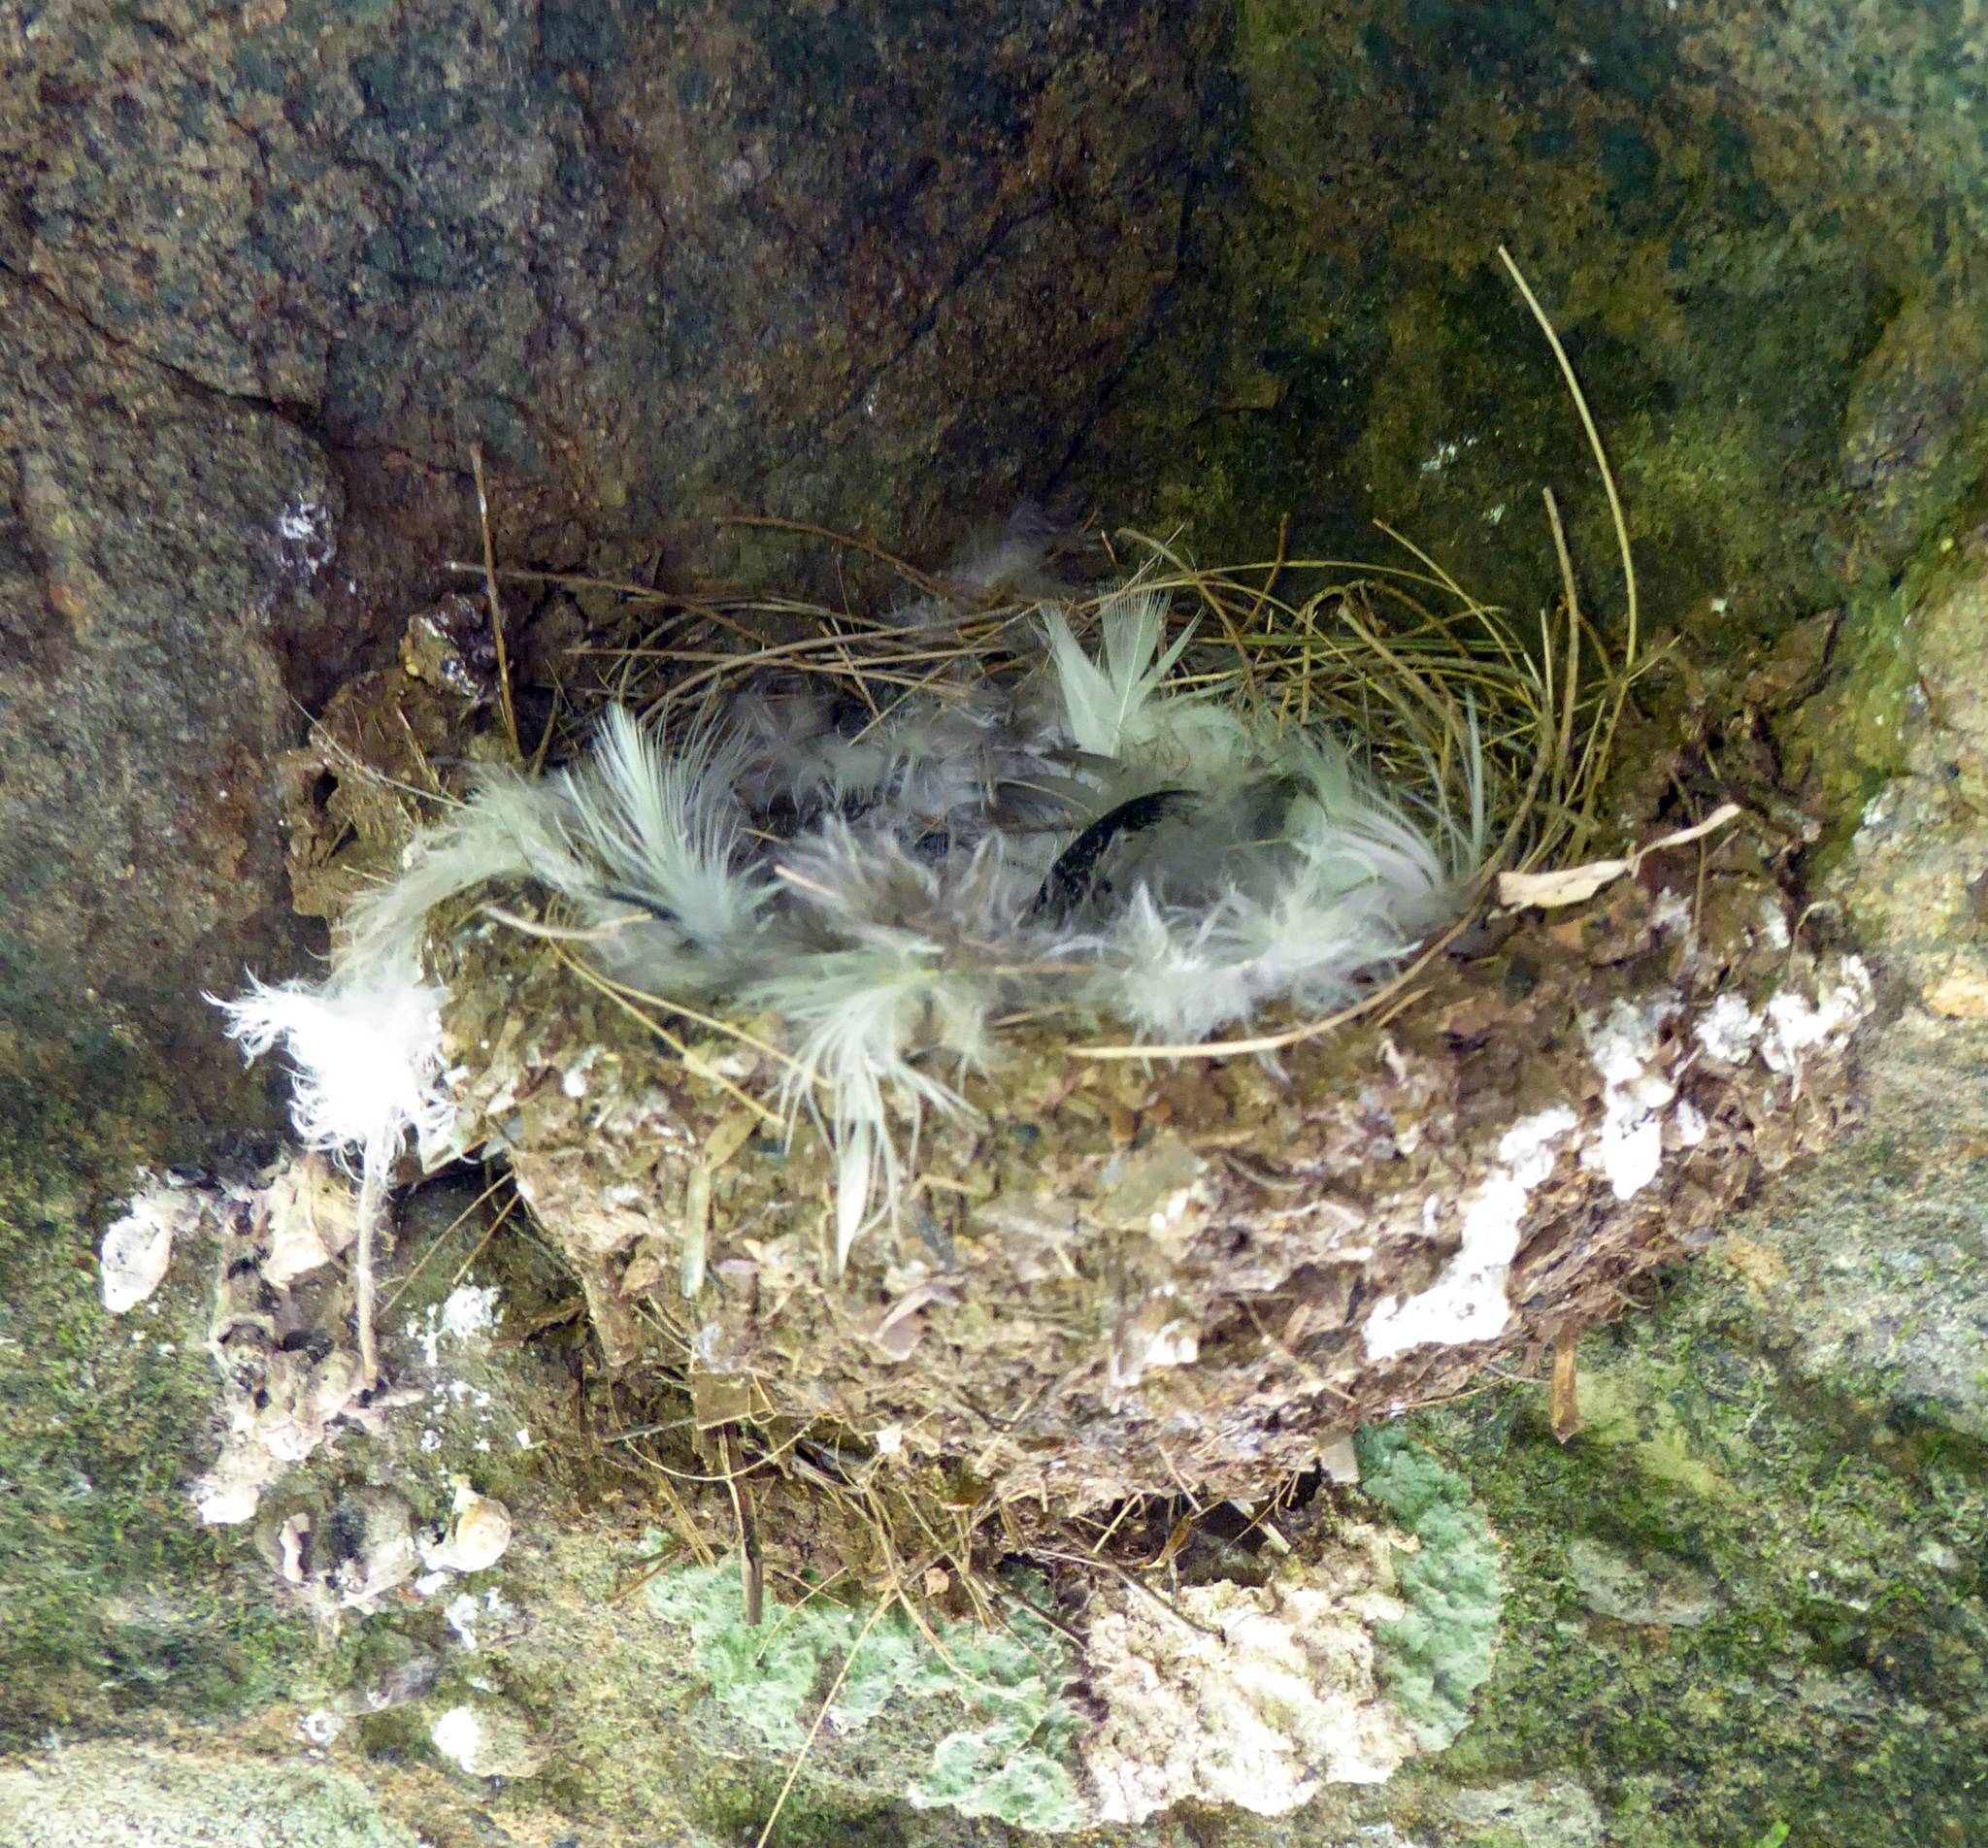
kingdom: Animalia
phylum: Chordata
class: Aves
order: Passeriformes
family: Hirundinidae
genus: Hirundo
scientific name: Hirundo neoxena
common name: Welcome swallow
